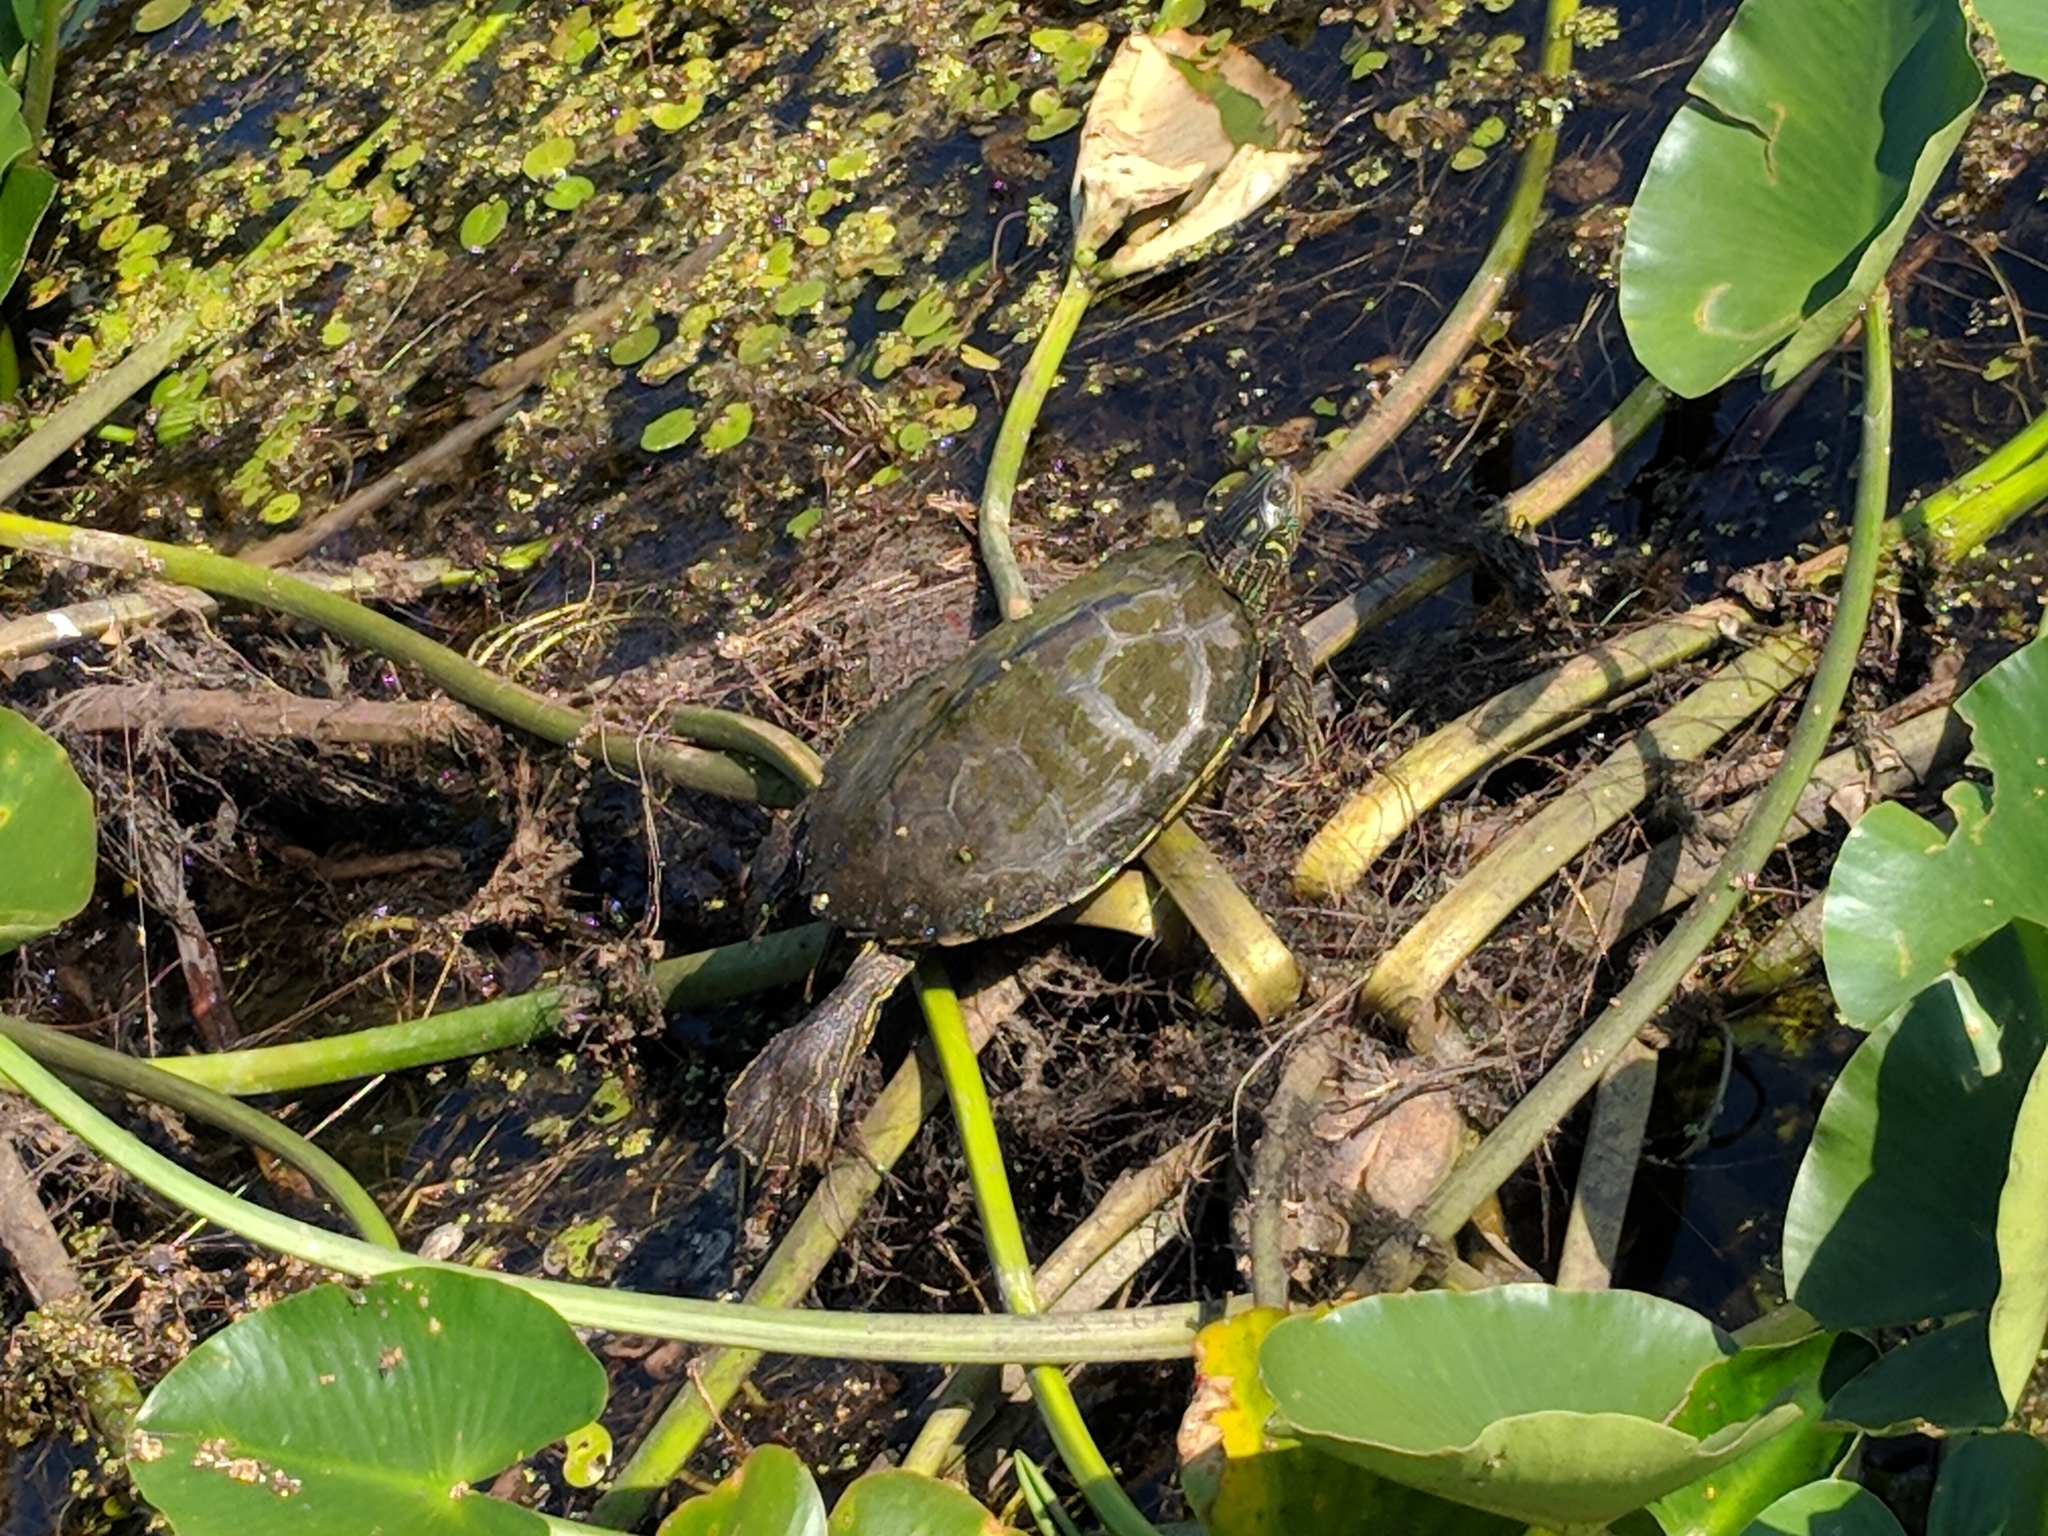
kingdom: Animalia
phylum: Chordata
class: Testudines
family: Emydidae
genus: Graptemys
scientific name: Graptemys geographica
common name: Common map turtle
